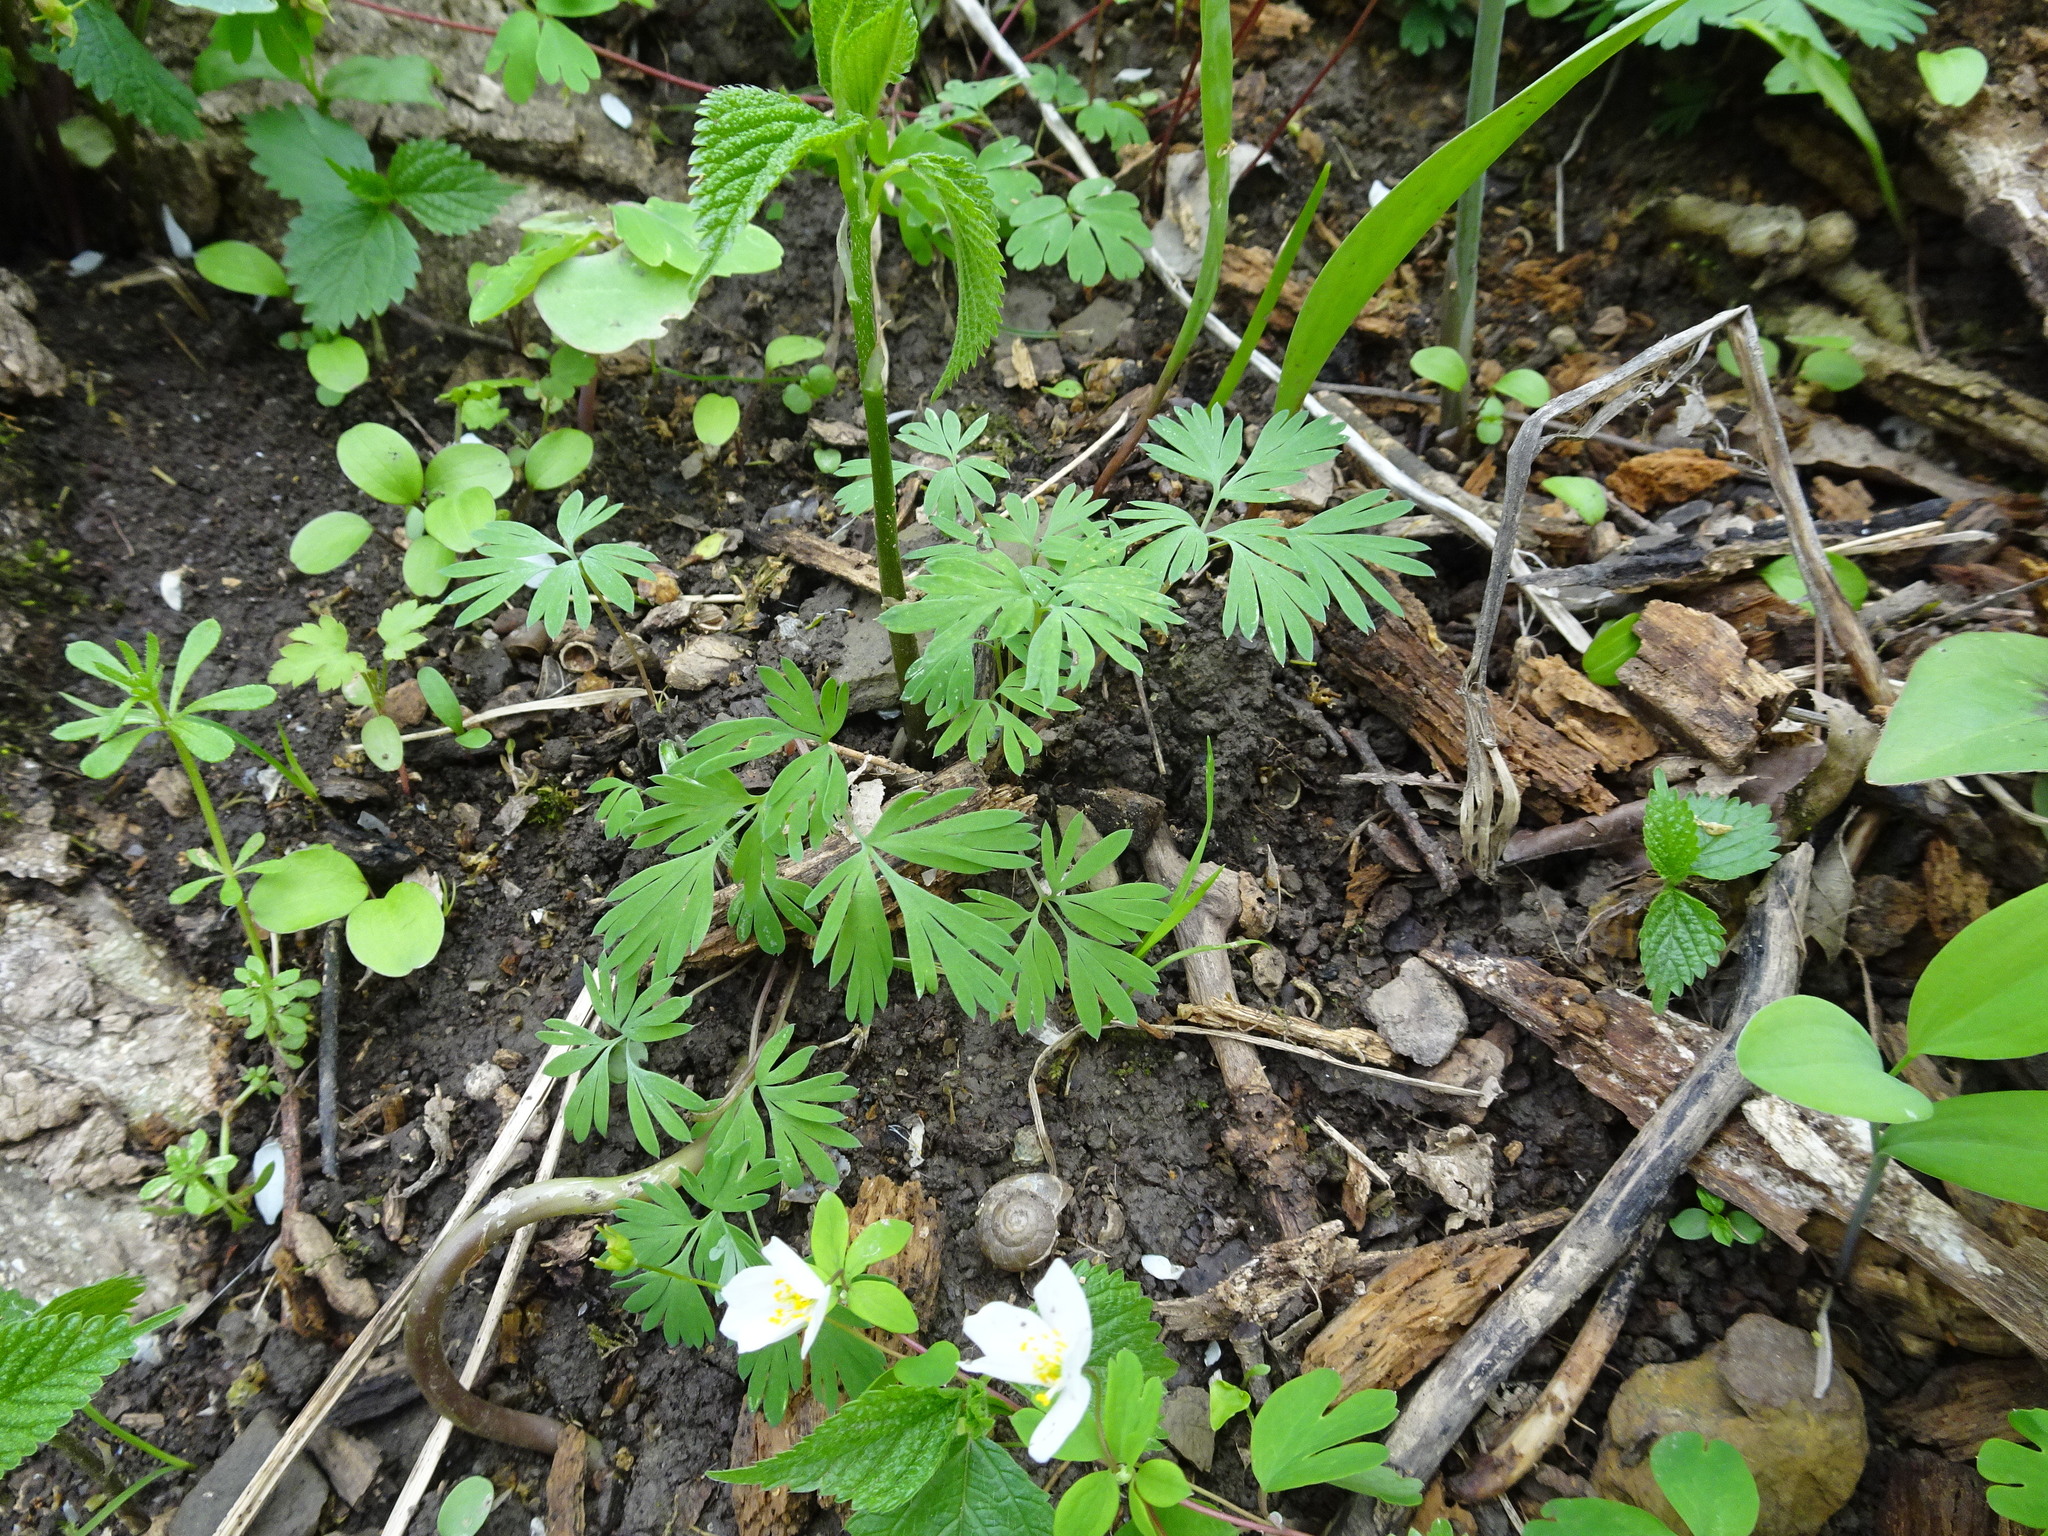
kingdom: Plantae
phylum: Tracheophyta
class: Magnoliopsida
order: Ranunculales
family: Papaveraceae
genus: Dicentra
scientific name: Dicentra cucullaria
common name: Dutchman's breeches
